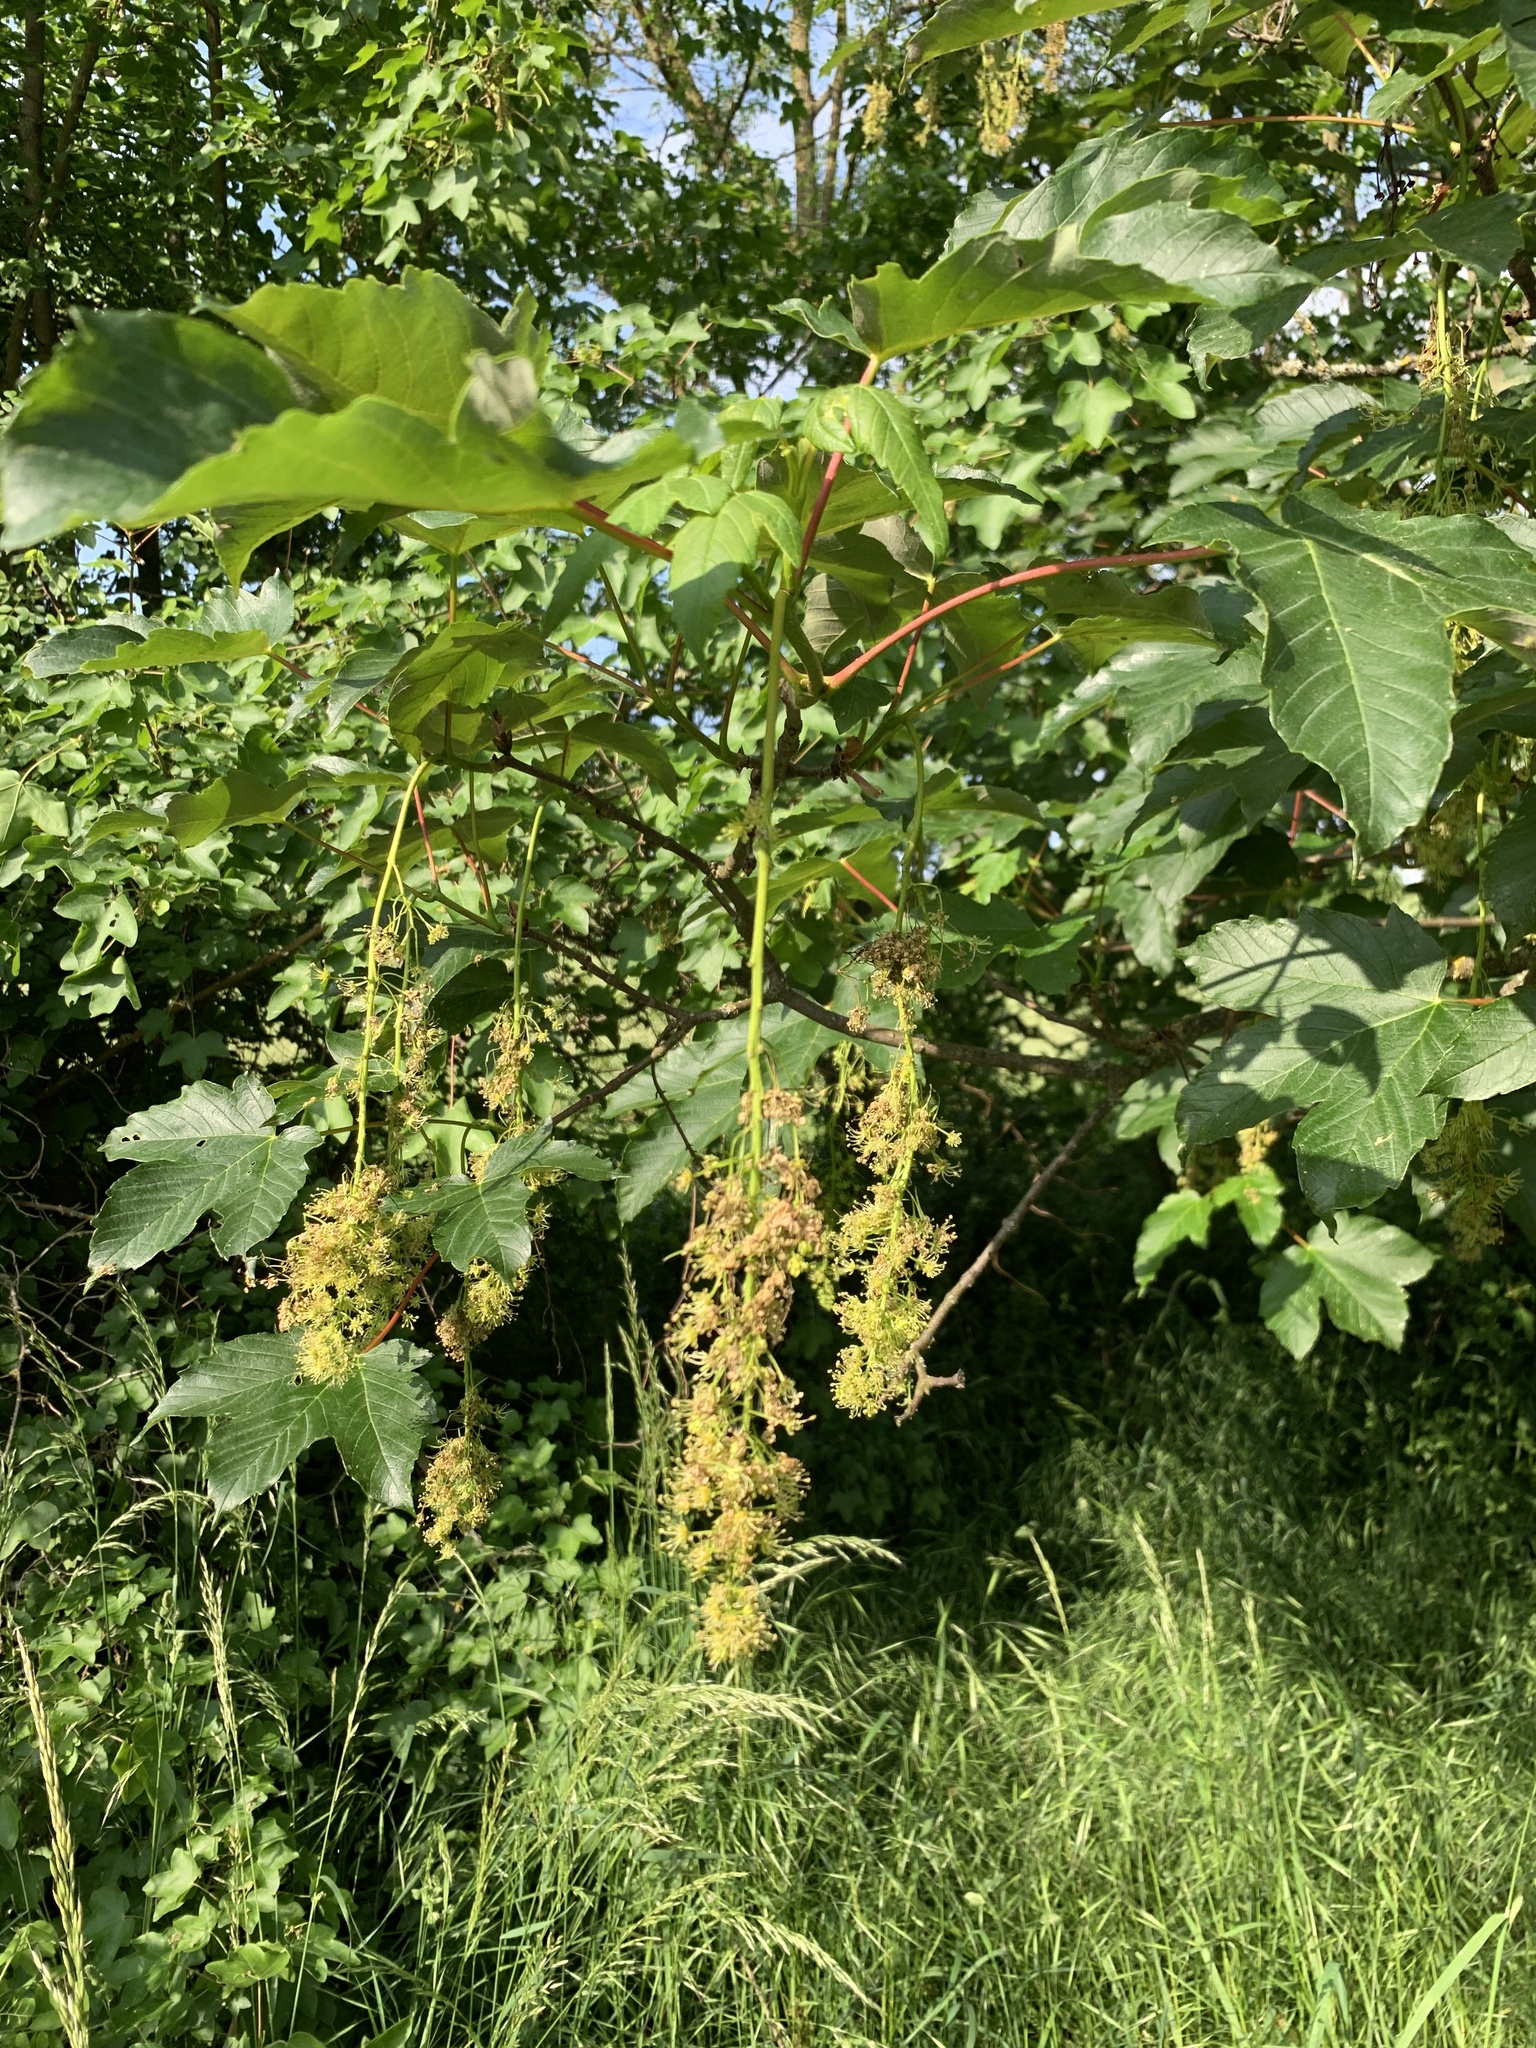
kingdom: Plantae
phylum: Tracheophyta
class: Magnoliopsida
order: Sapindales
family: Sapindaceae
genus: Acer
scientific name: Acer pseudoplatanus
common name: Sycamore
